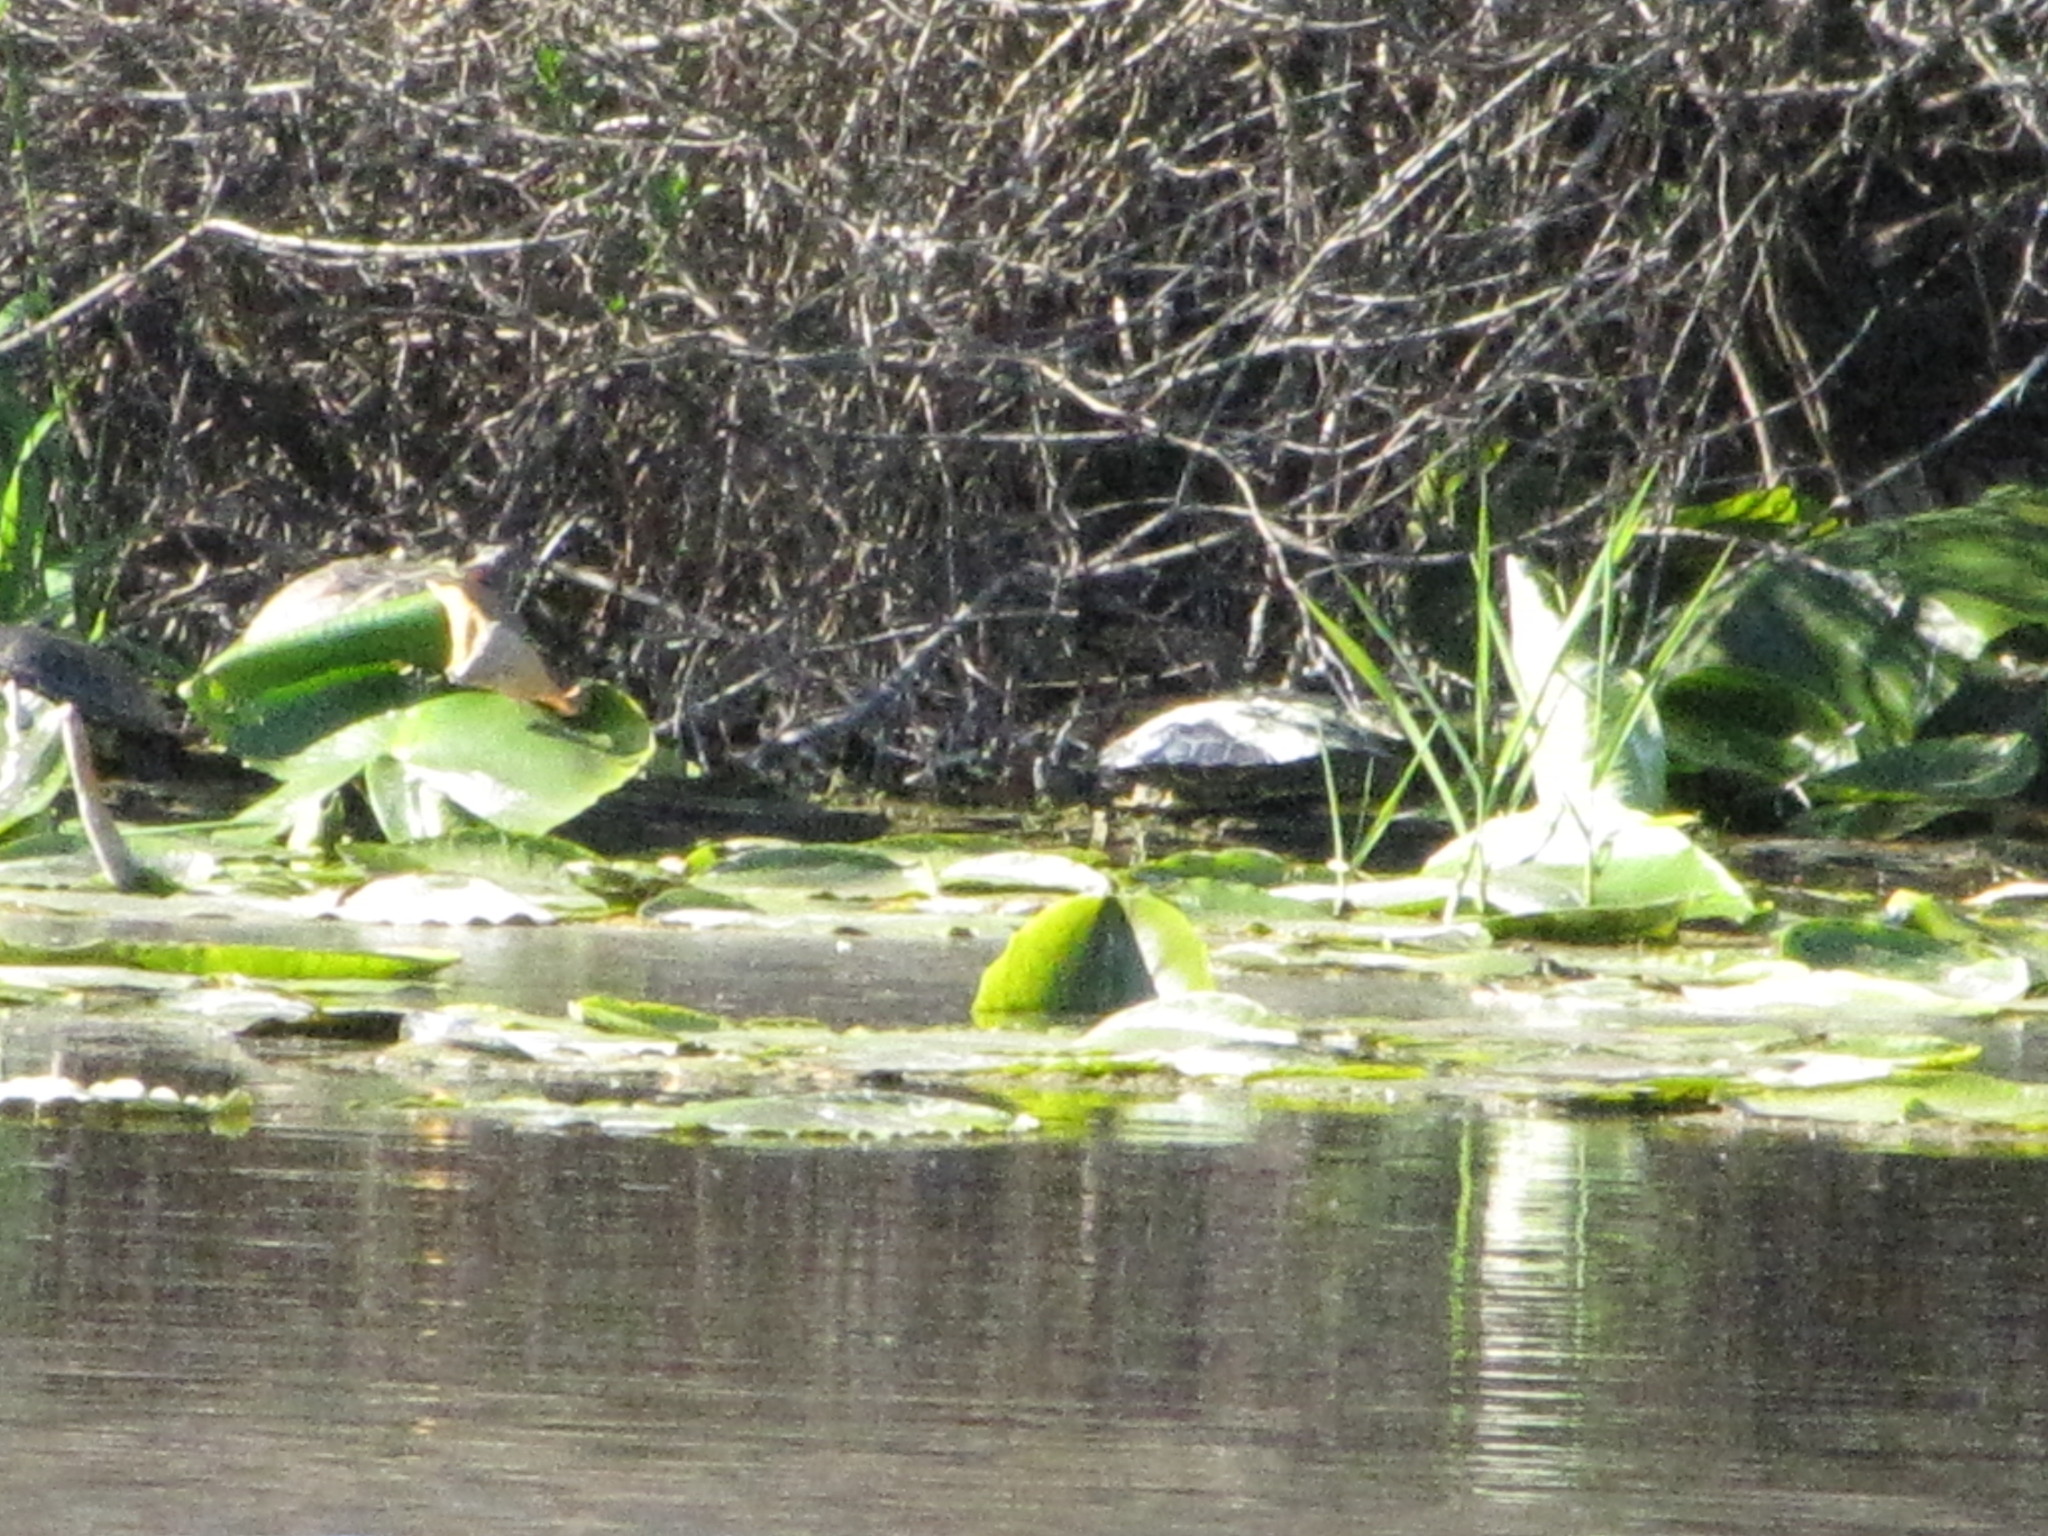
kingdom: Animalia
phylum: Chordata
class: Testudines
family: Emydidae
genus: Chrysemys
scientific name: Chrysemys picta
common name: Painted turtle
